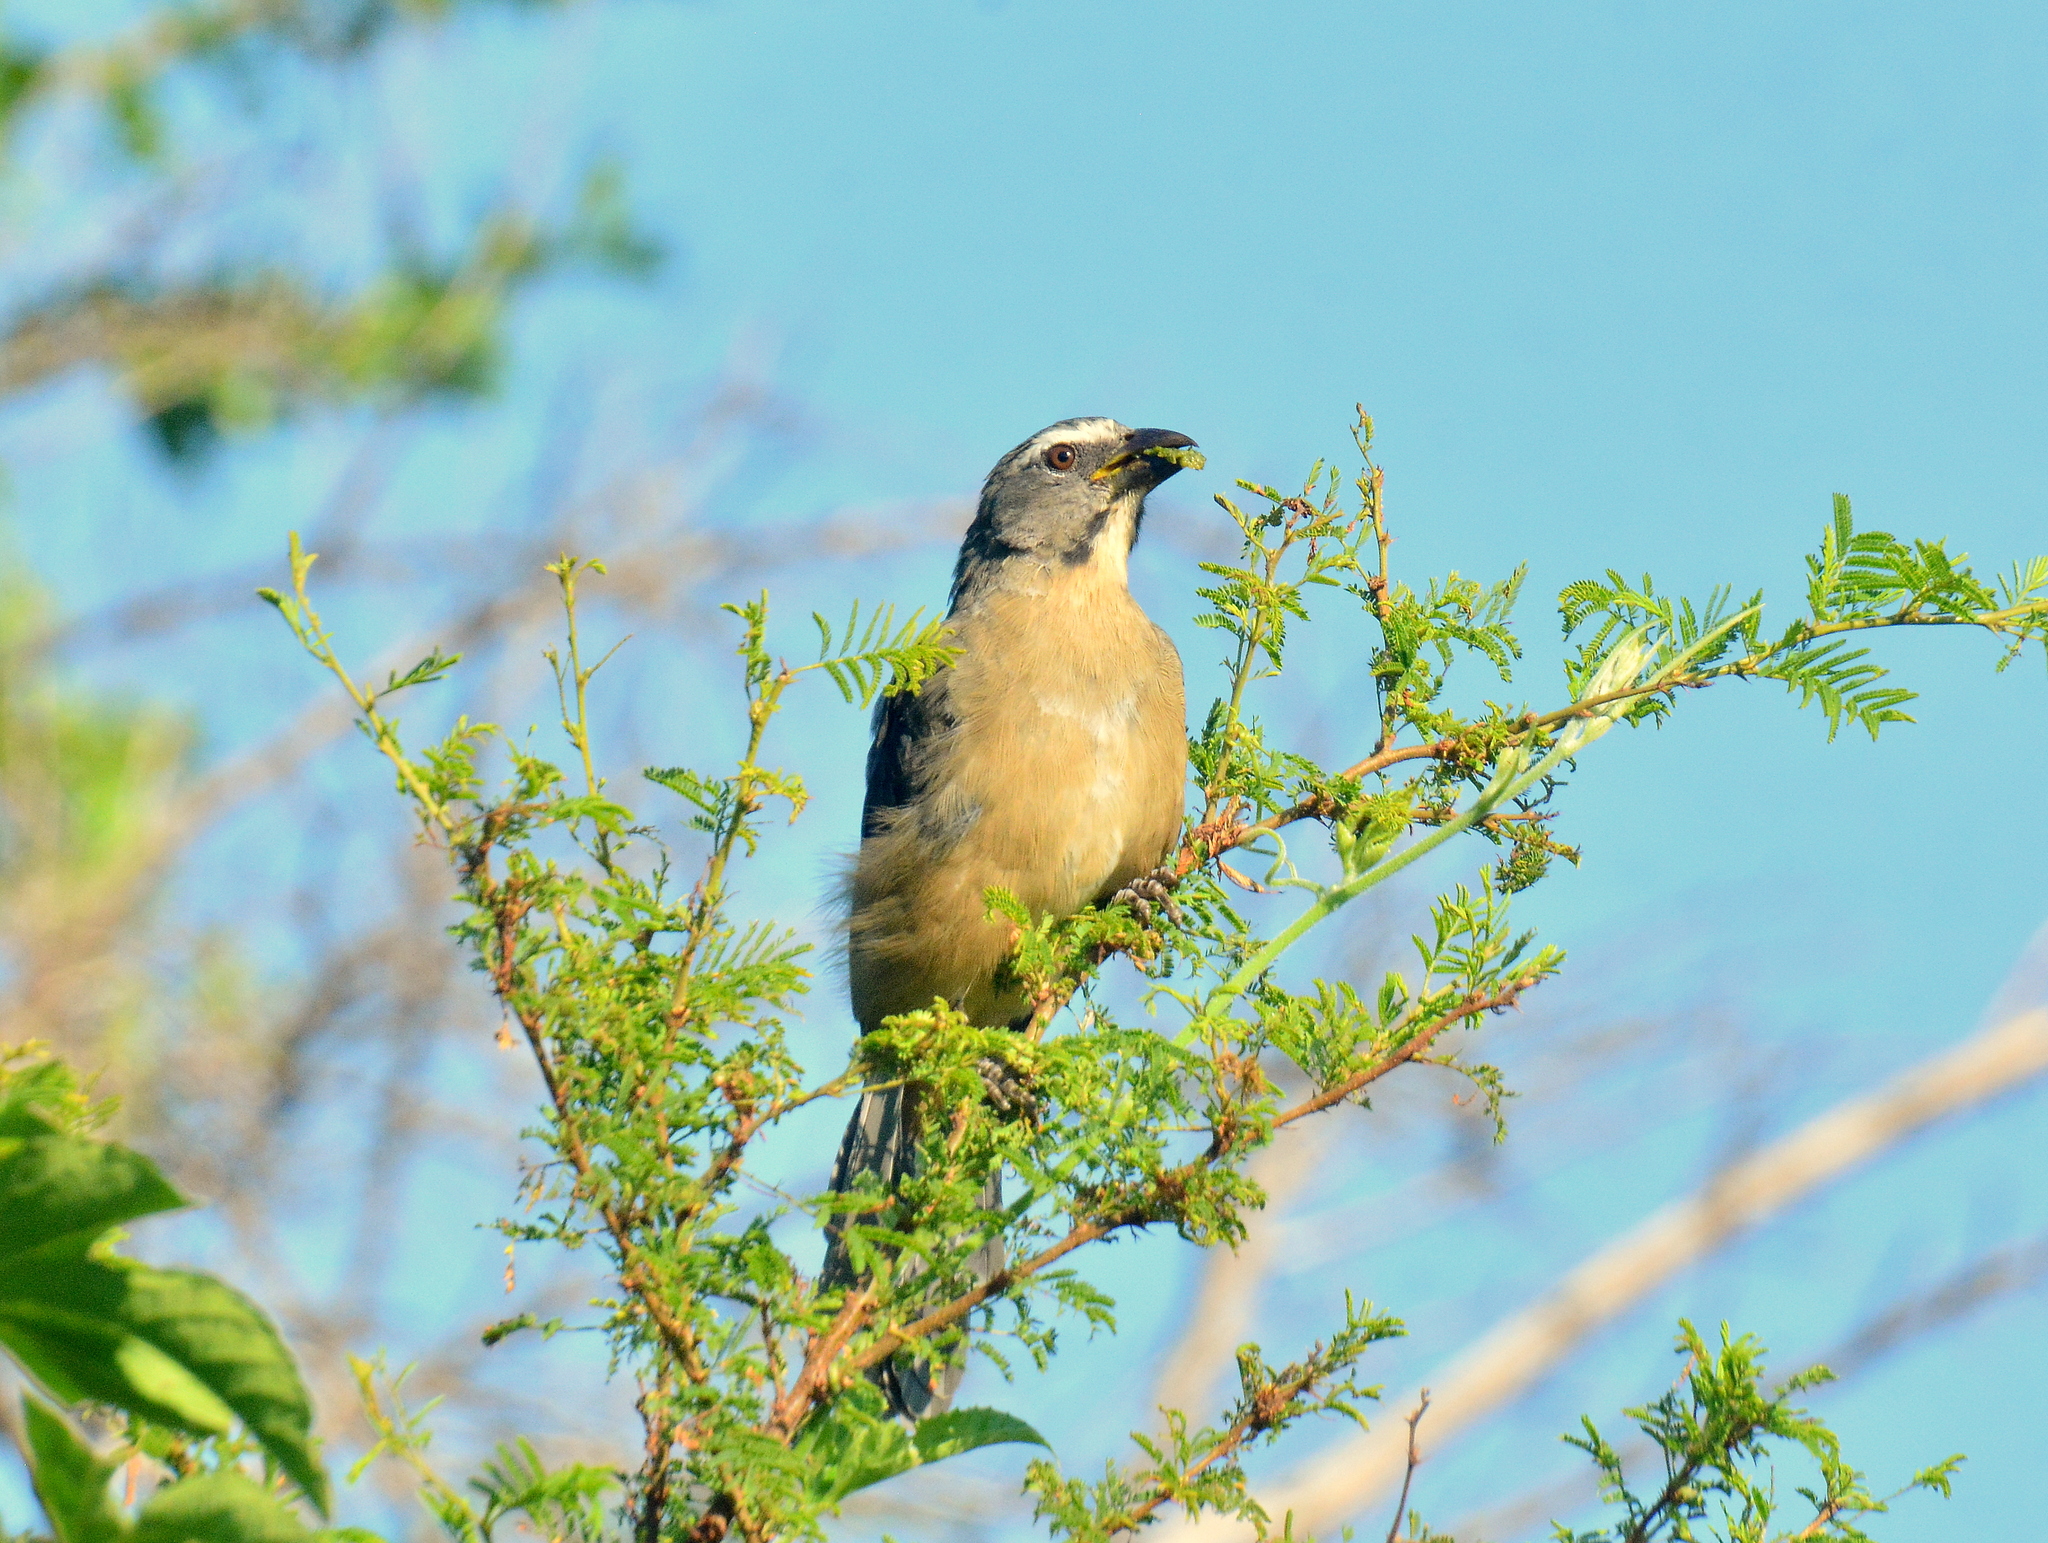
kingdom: Animalia
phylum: Chordata
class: Aves
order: Passeriformes
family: Thraupidae
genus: Saltator
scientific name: Saltator coerulescens
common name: Grayish saltator
